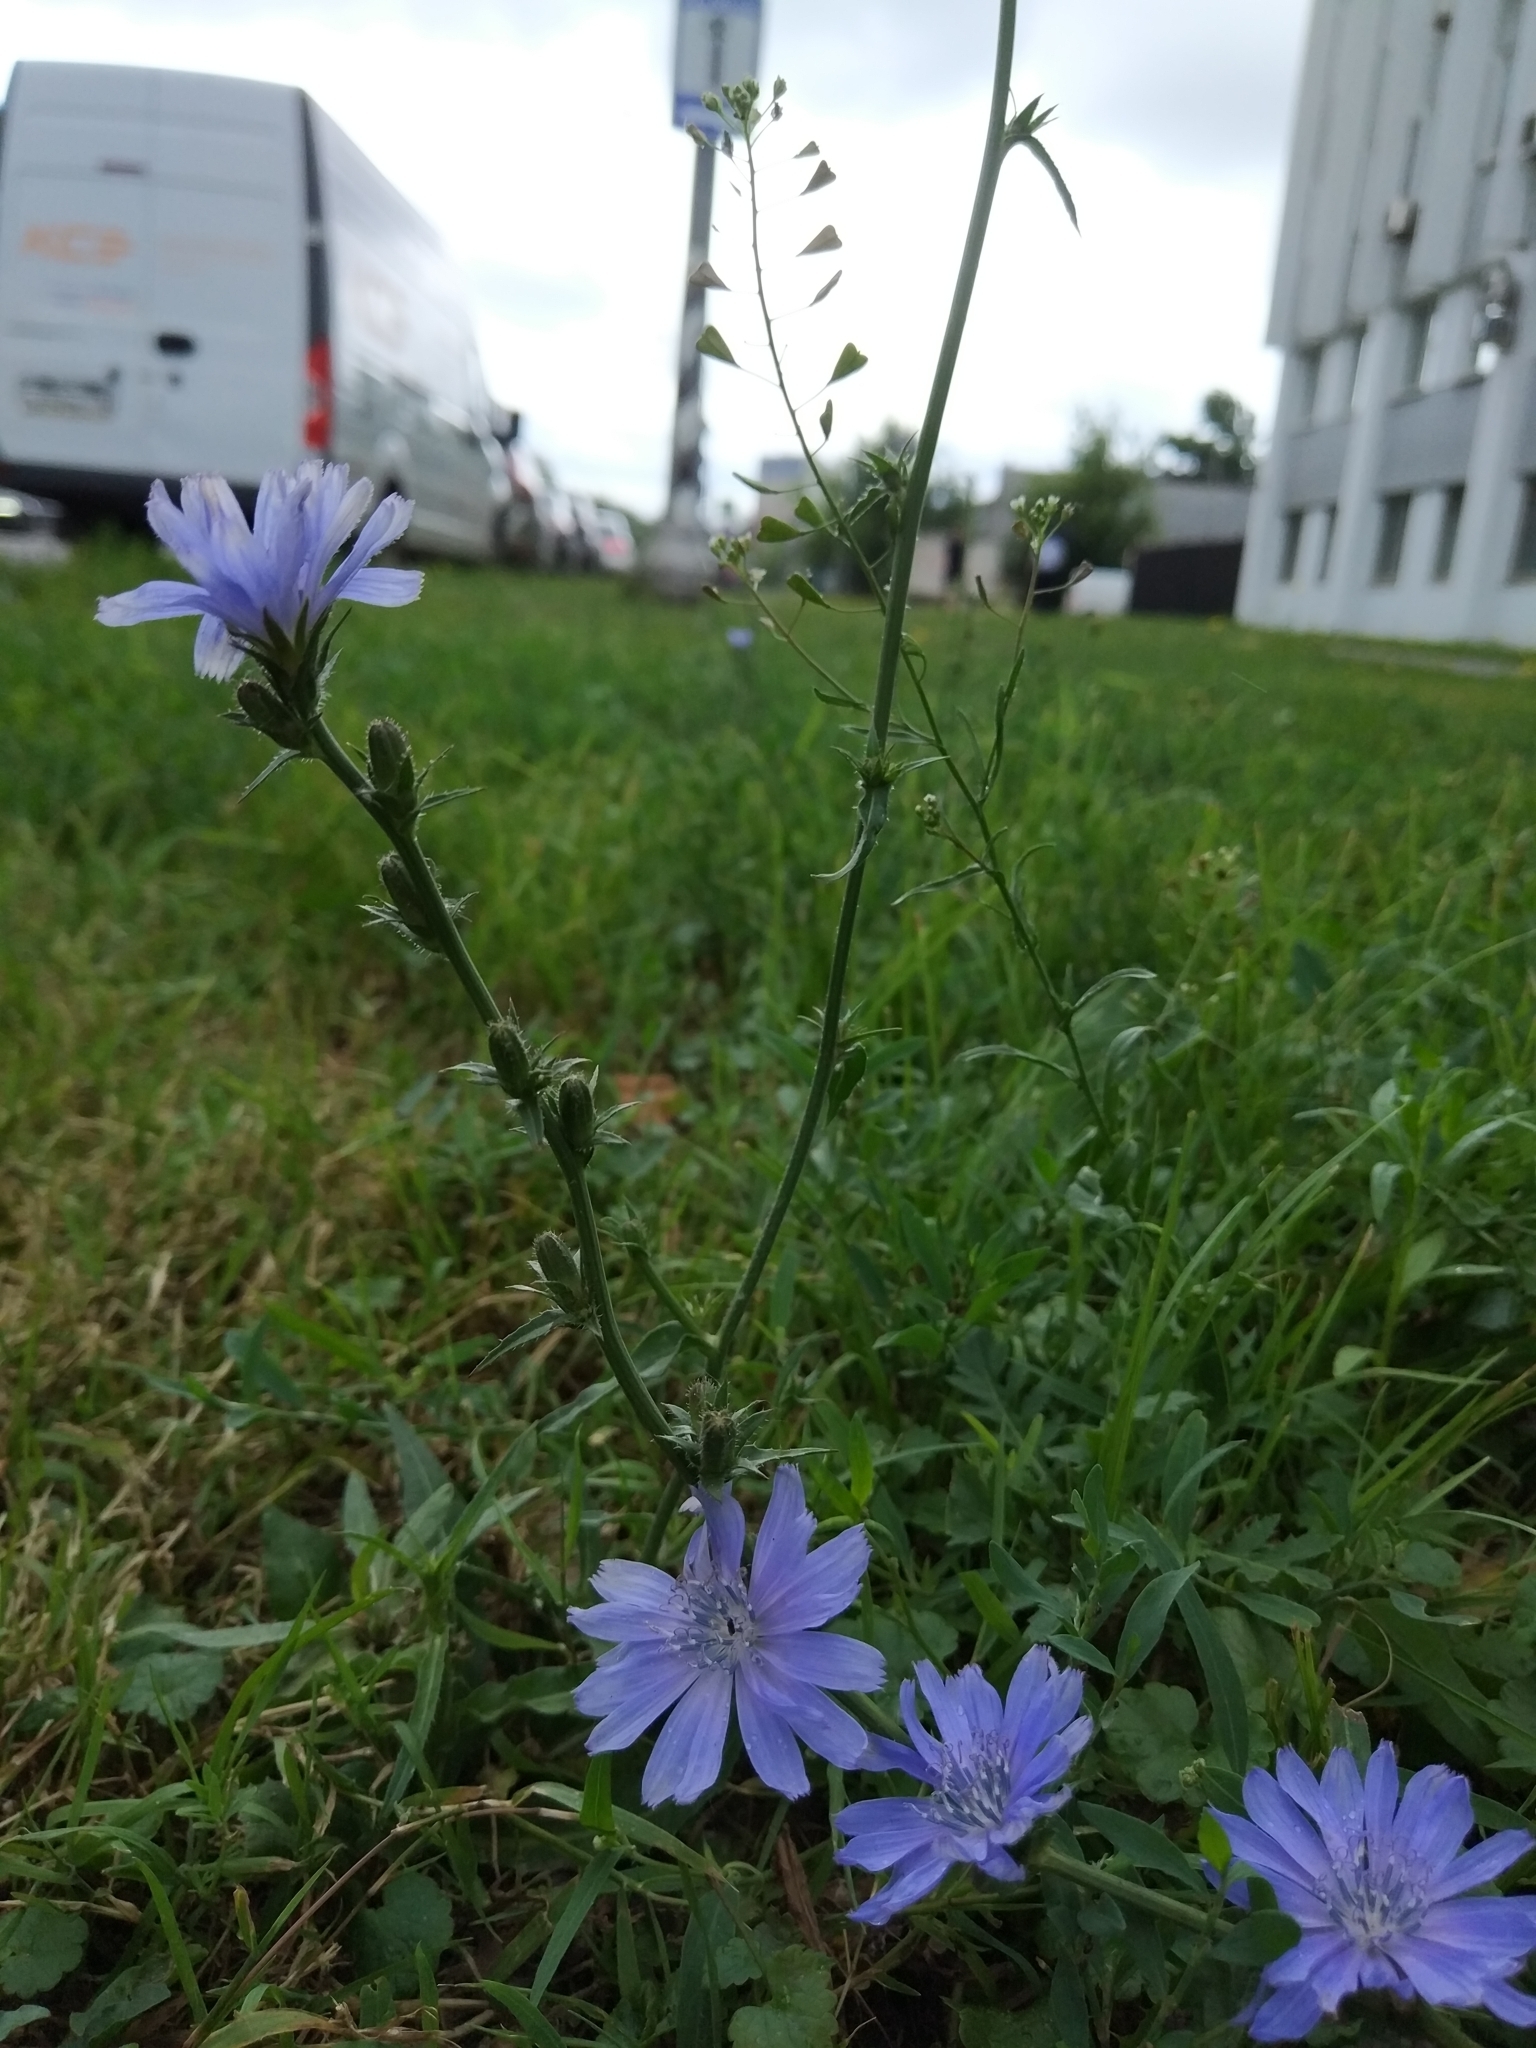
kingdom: Plantae
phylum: Tracheophyta
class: Magnoliopsida
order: Asterales
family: Asteraceae
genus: Cichorium
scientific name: Cichorium intybus
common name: Chicory
